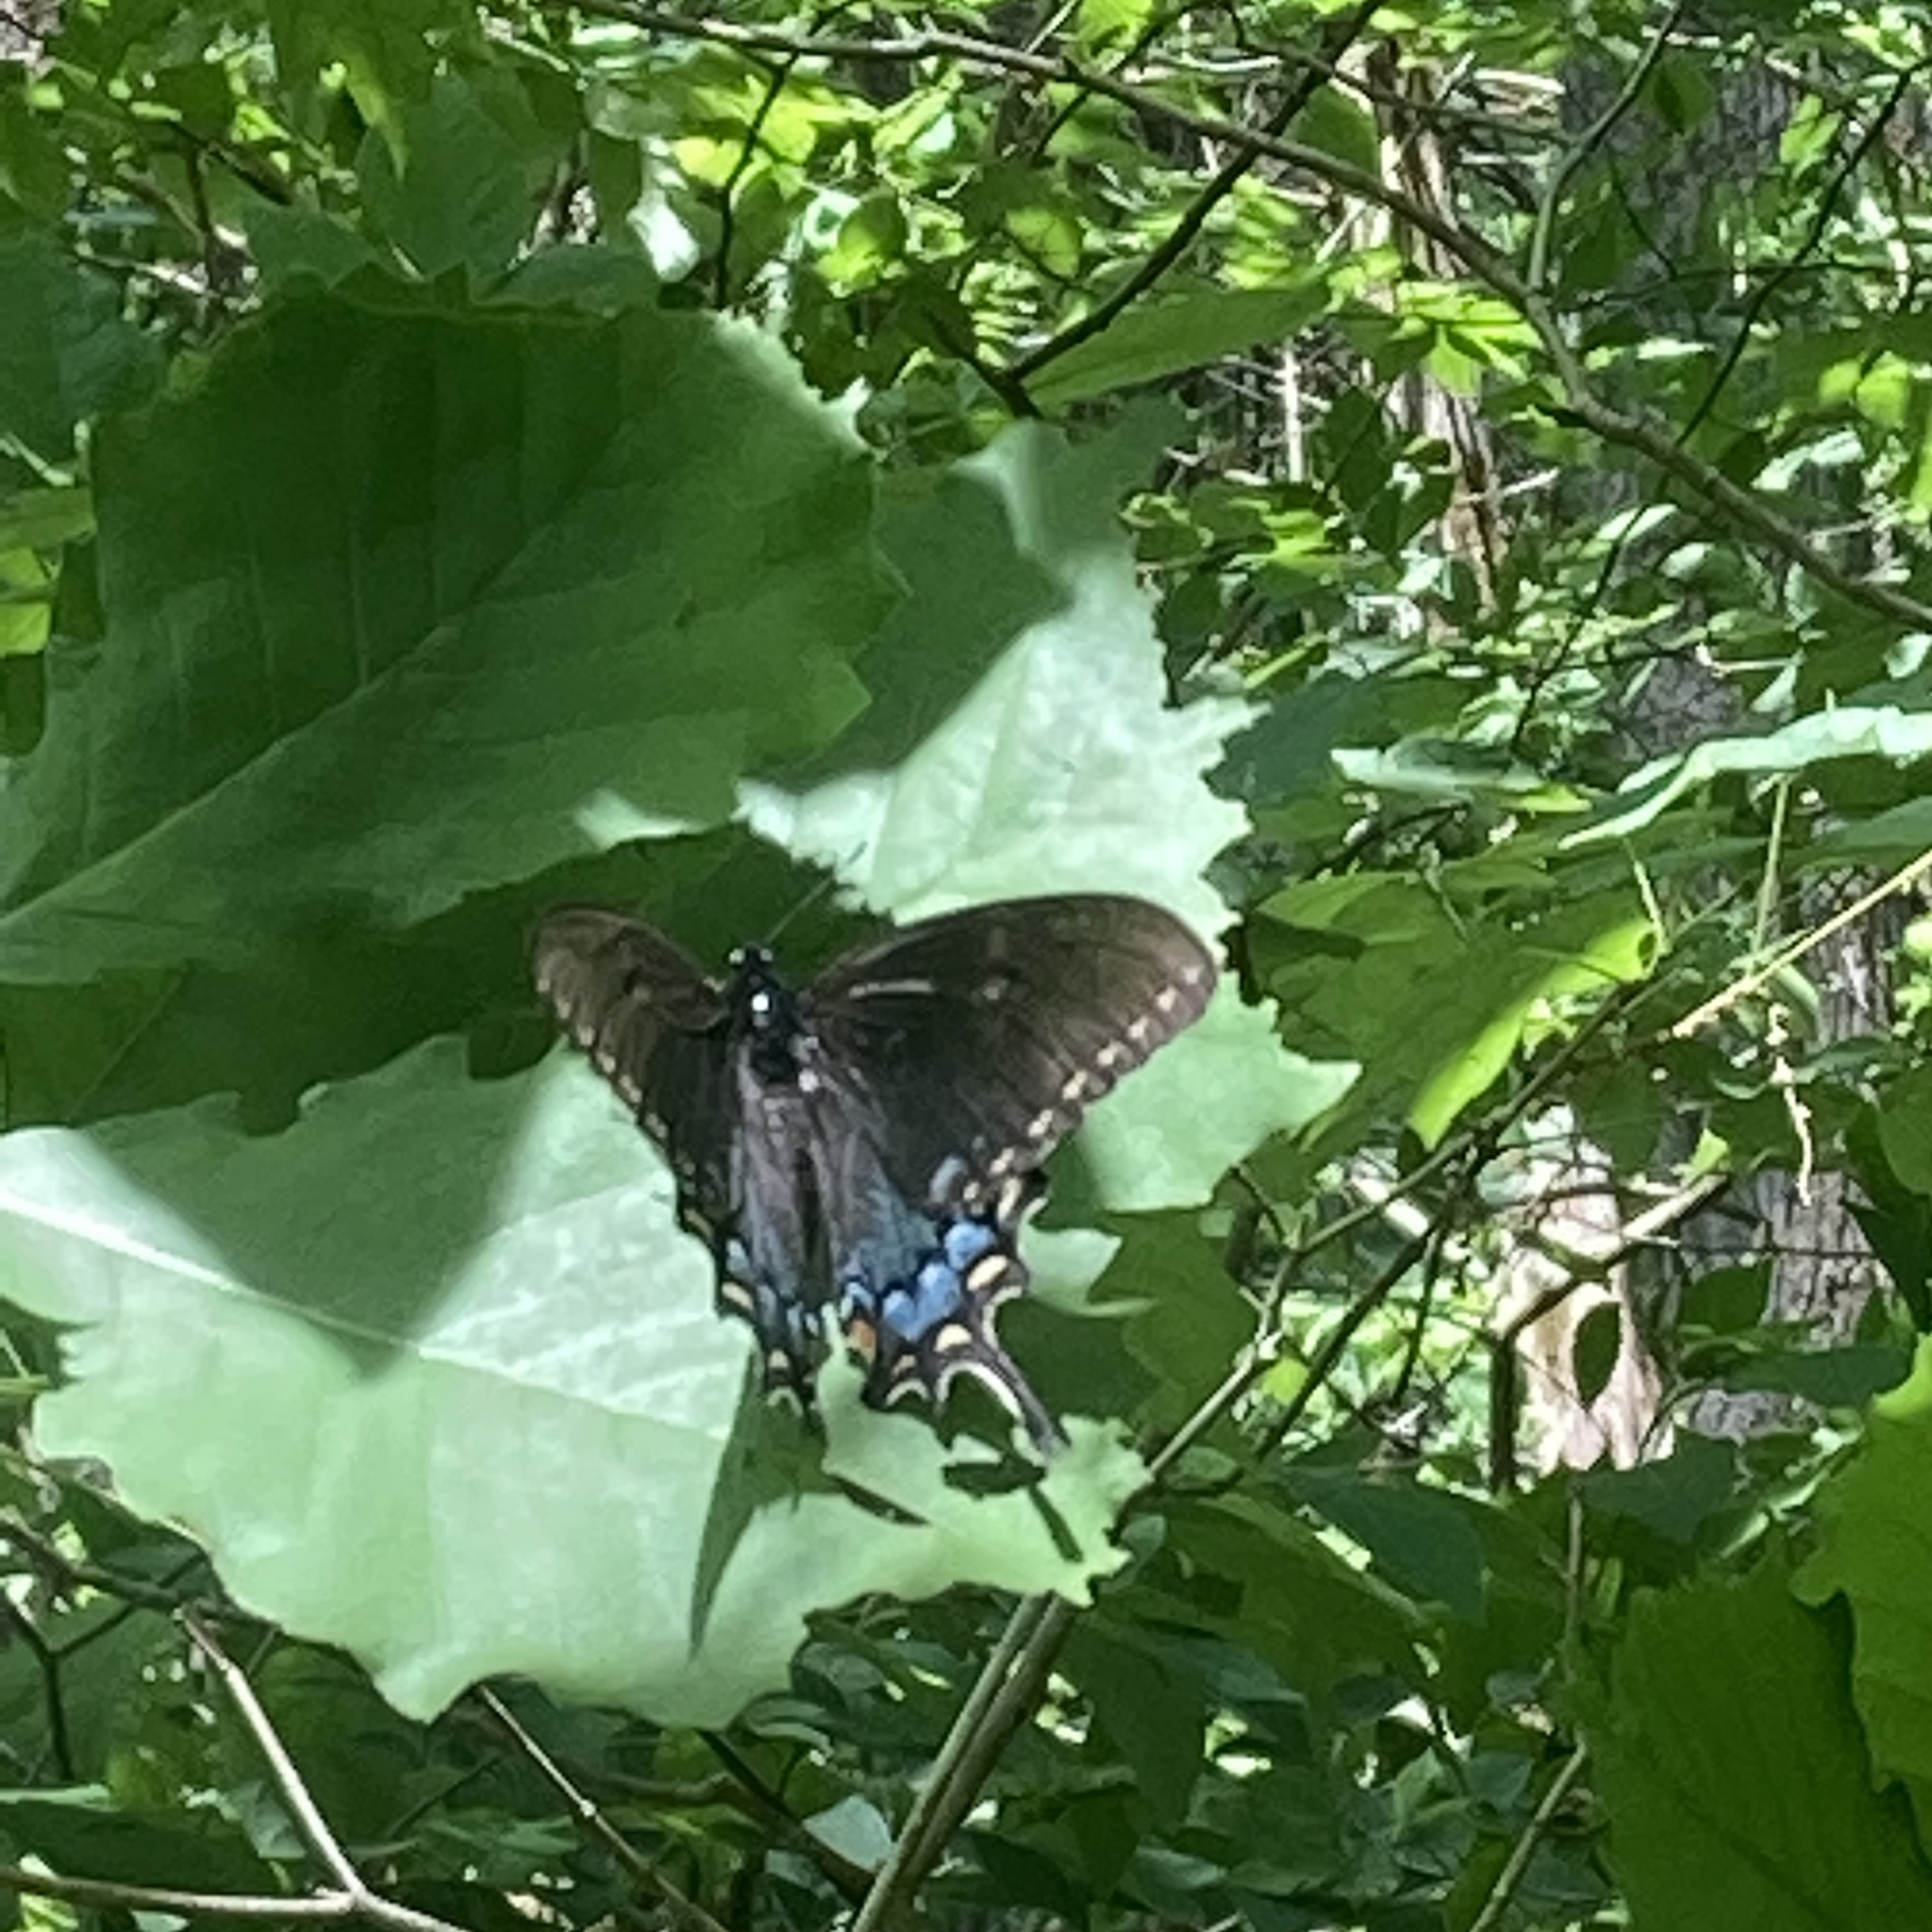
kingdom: Animalia
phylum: Arthropoda
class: Insecta
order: Lepidoptera
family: Papilionidae
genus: Papilio
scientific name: Papilio glaucus
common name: Tiger swallowtail
